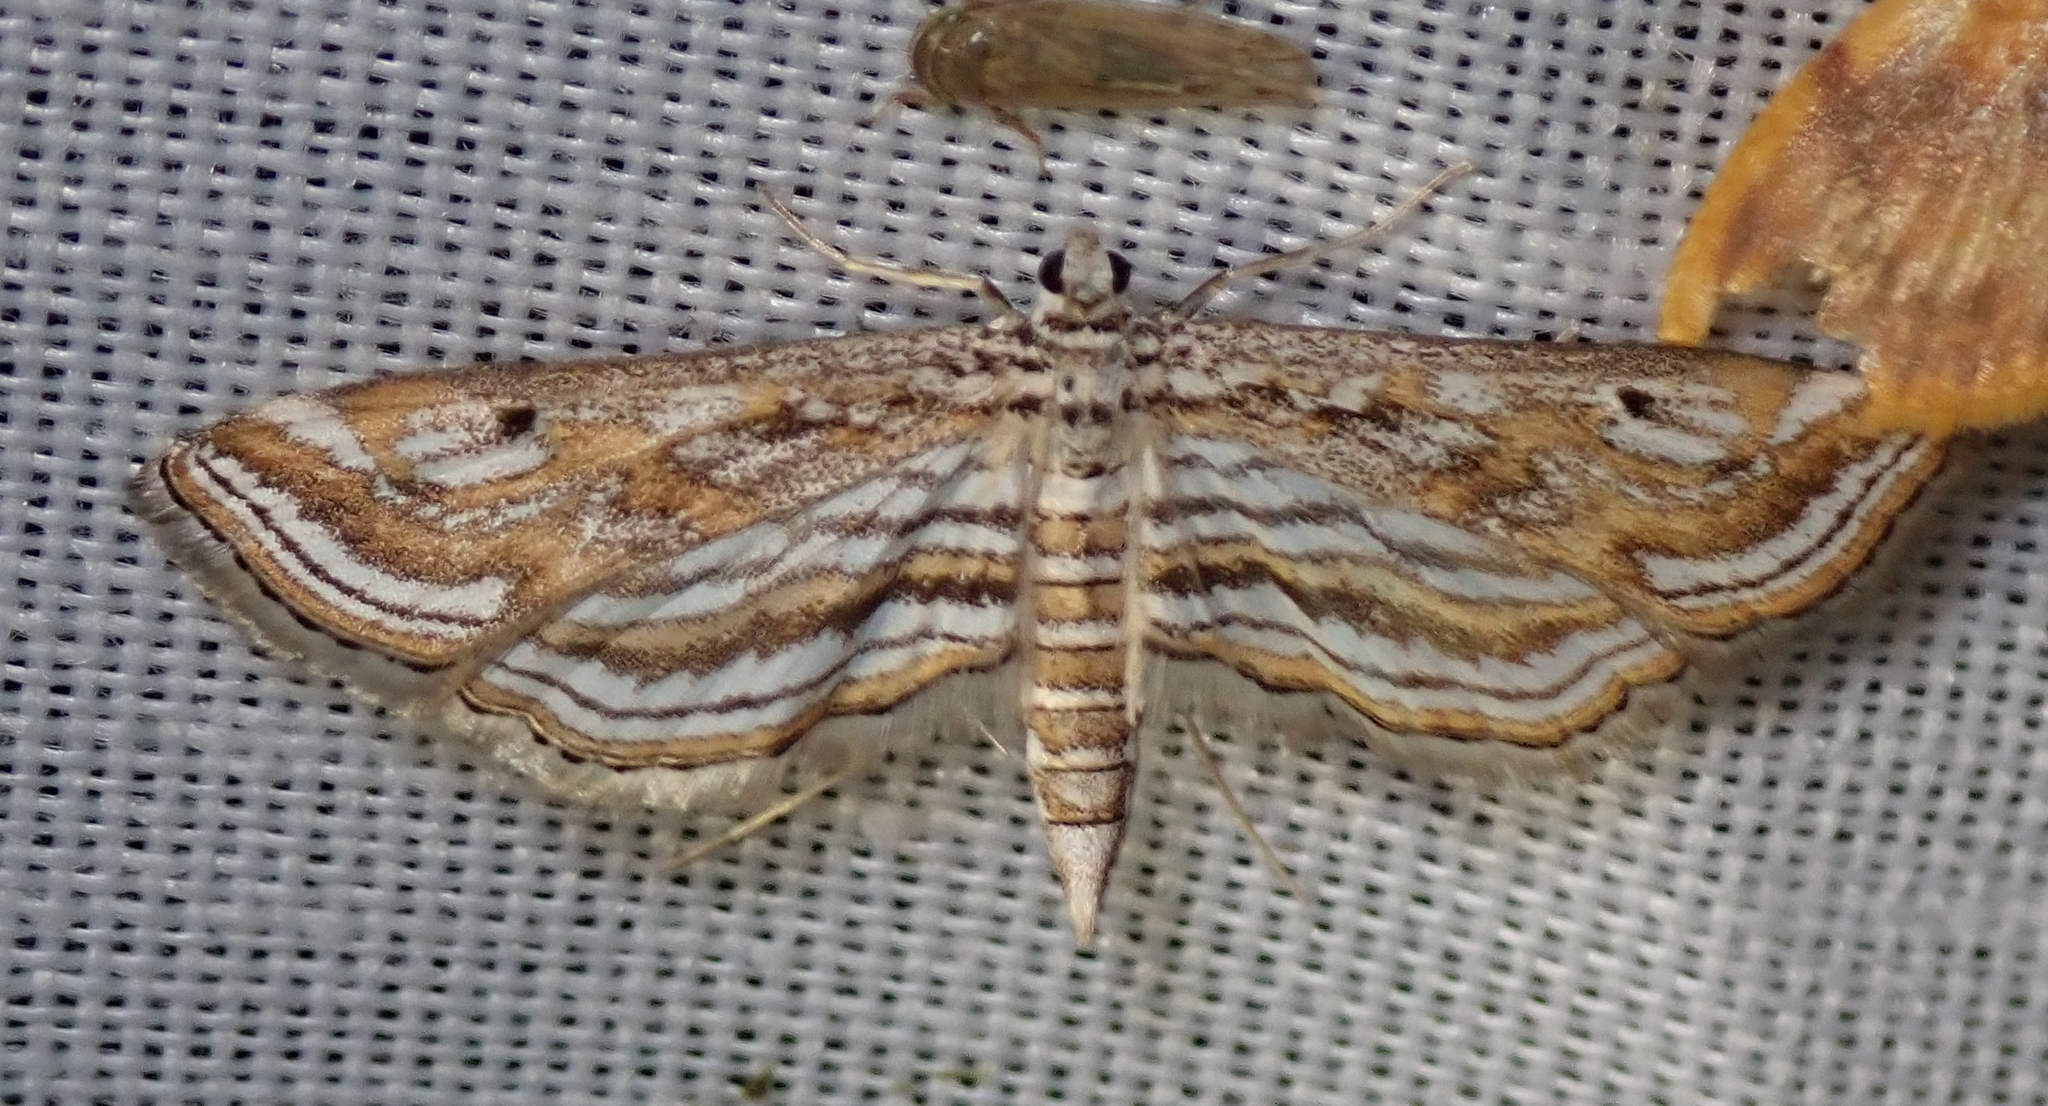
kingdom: Animalia
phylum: Arthropoda
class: Insecta
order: Lepidoptera
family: Crambidae
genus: Parapoynx
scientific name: Parapoynx fluctuosalis
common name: Moth
